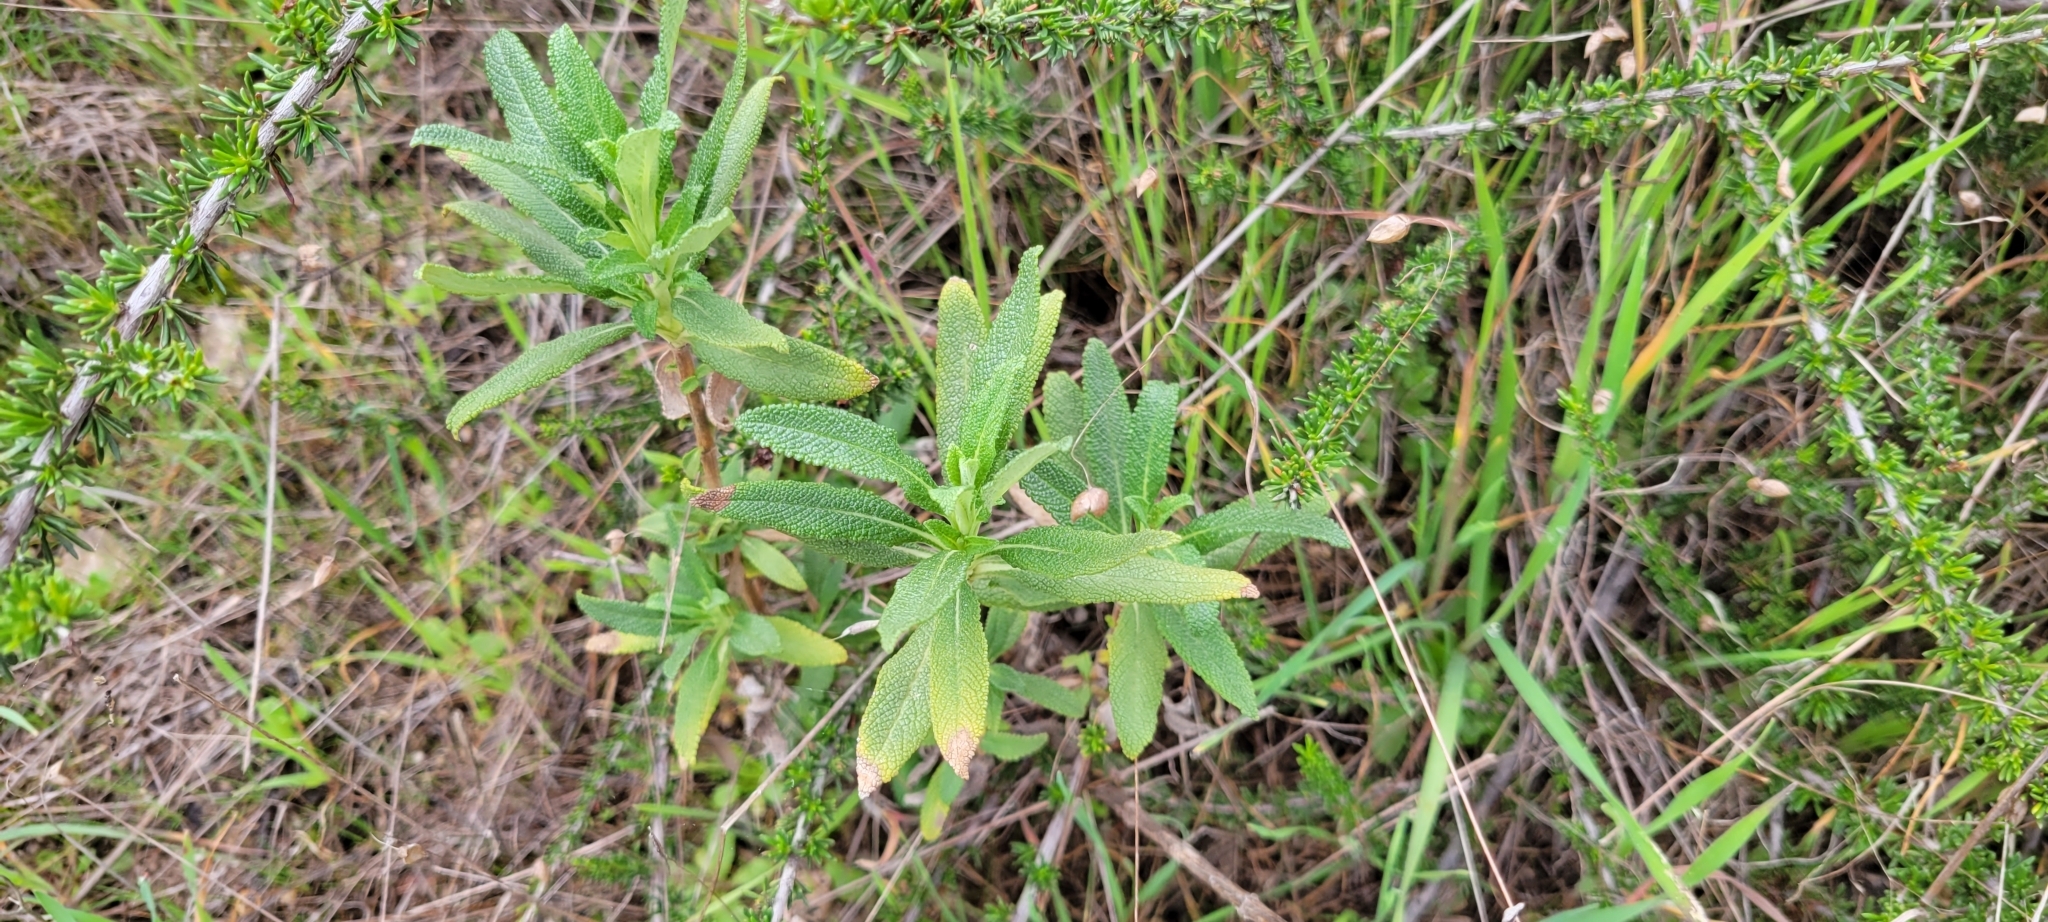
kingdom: Plantae
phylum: Tracheophyta
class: Magnoliopsida
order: Lamiales
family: Lamiaceae
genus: Salvia
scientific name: Salvia mellifera
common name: Black sage
